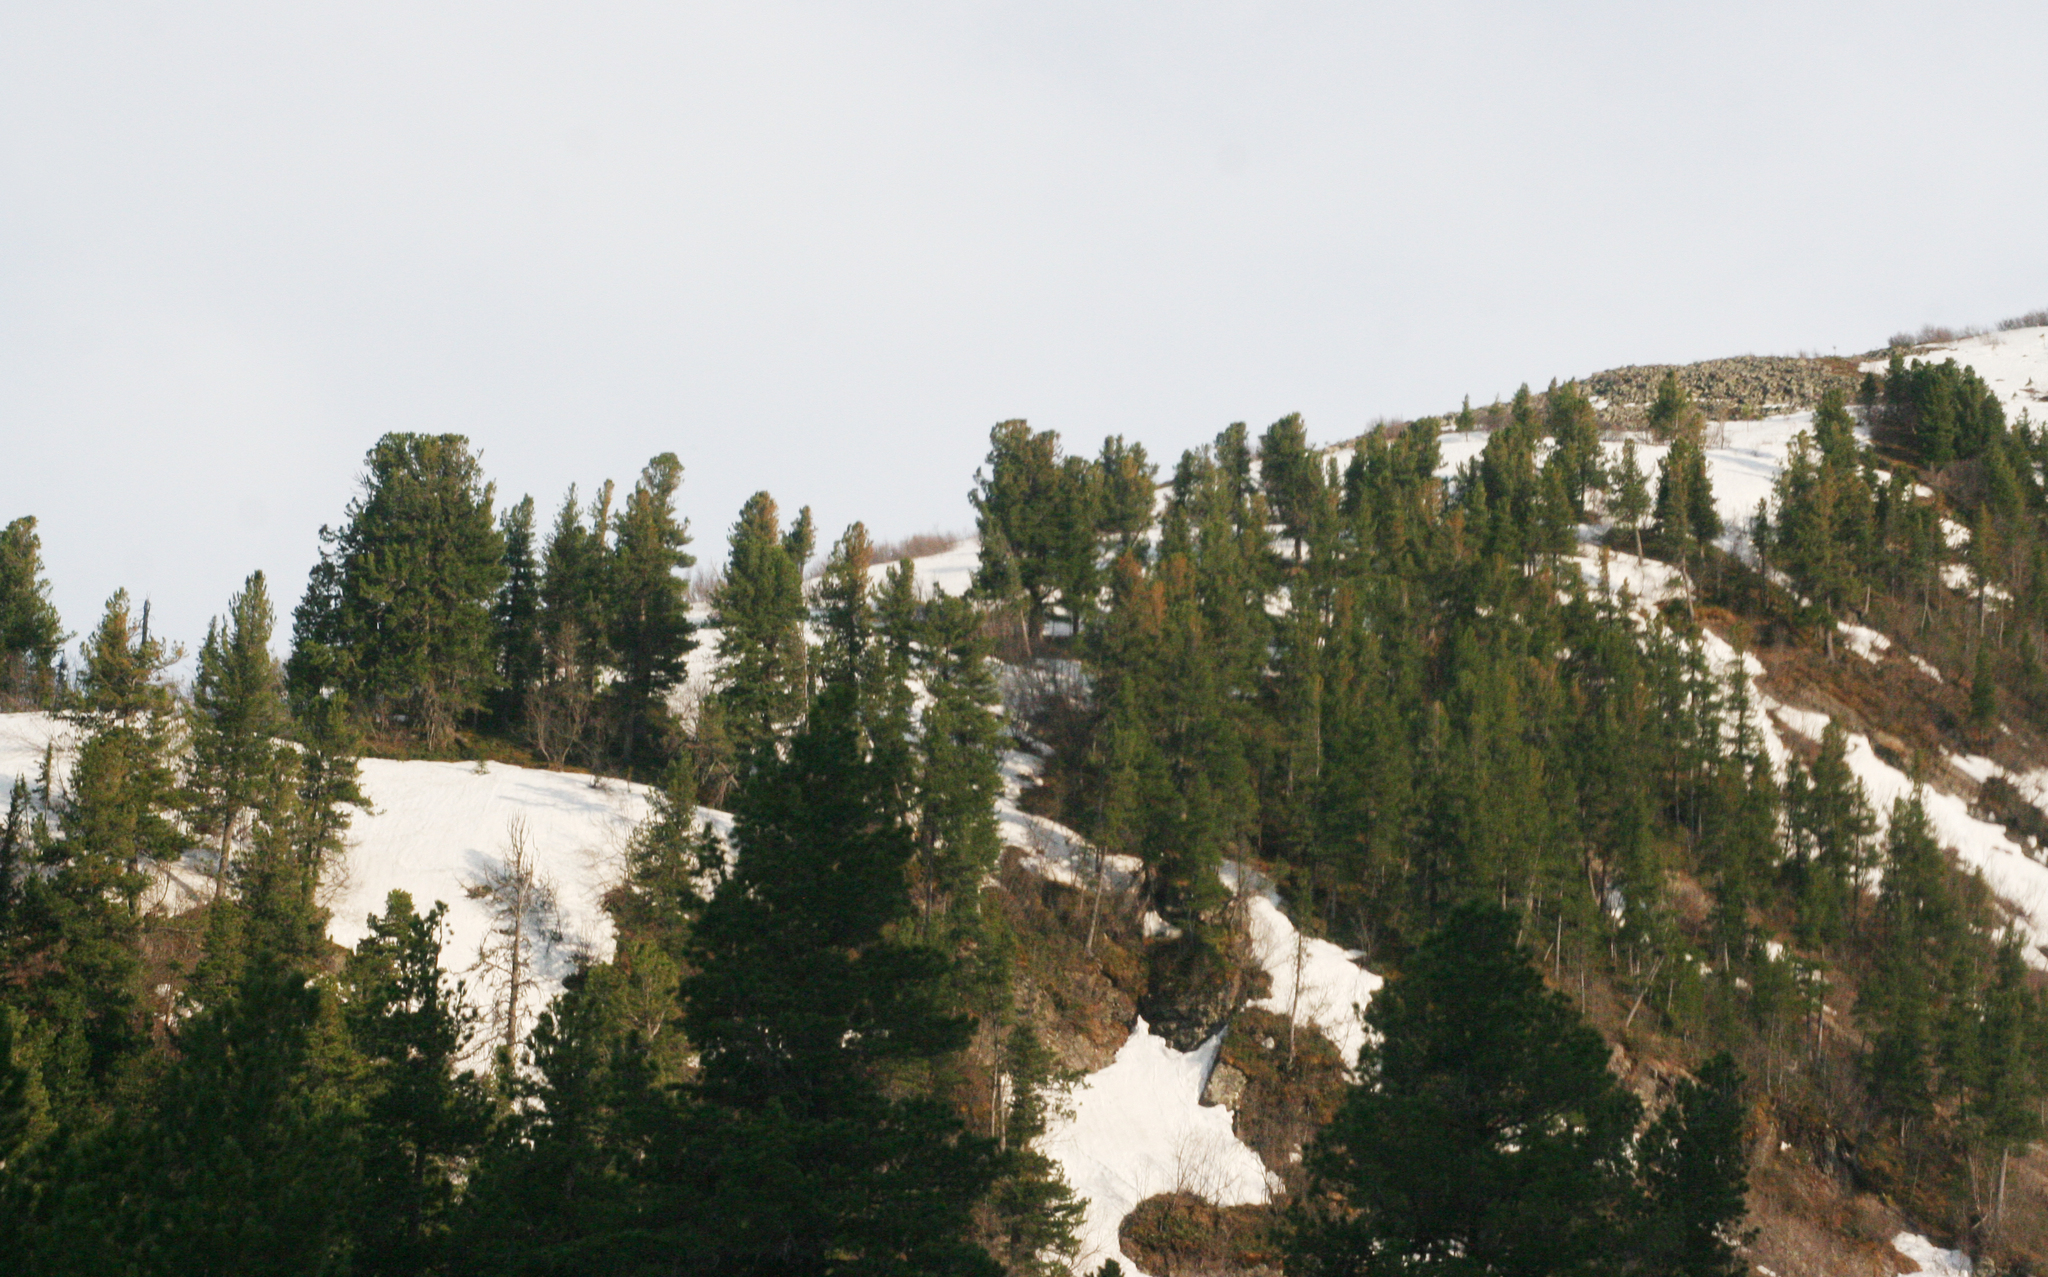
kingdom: Plantae
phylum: Tracheophyta
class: Pinopsida
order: Pinales
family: Pinaceae
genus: Pinus
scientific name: Pinus sibirica
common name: Siberian pine
